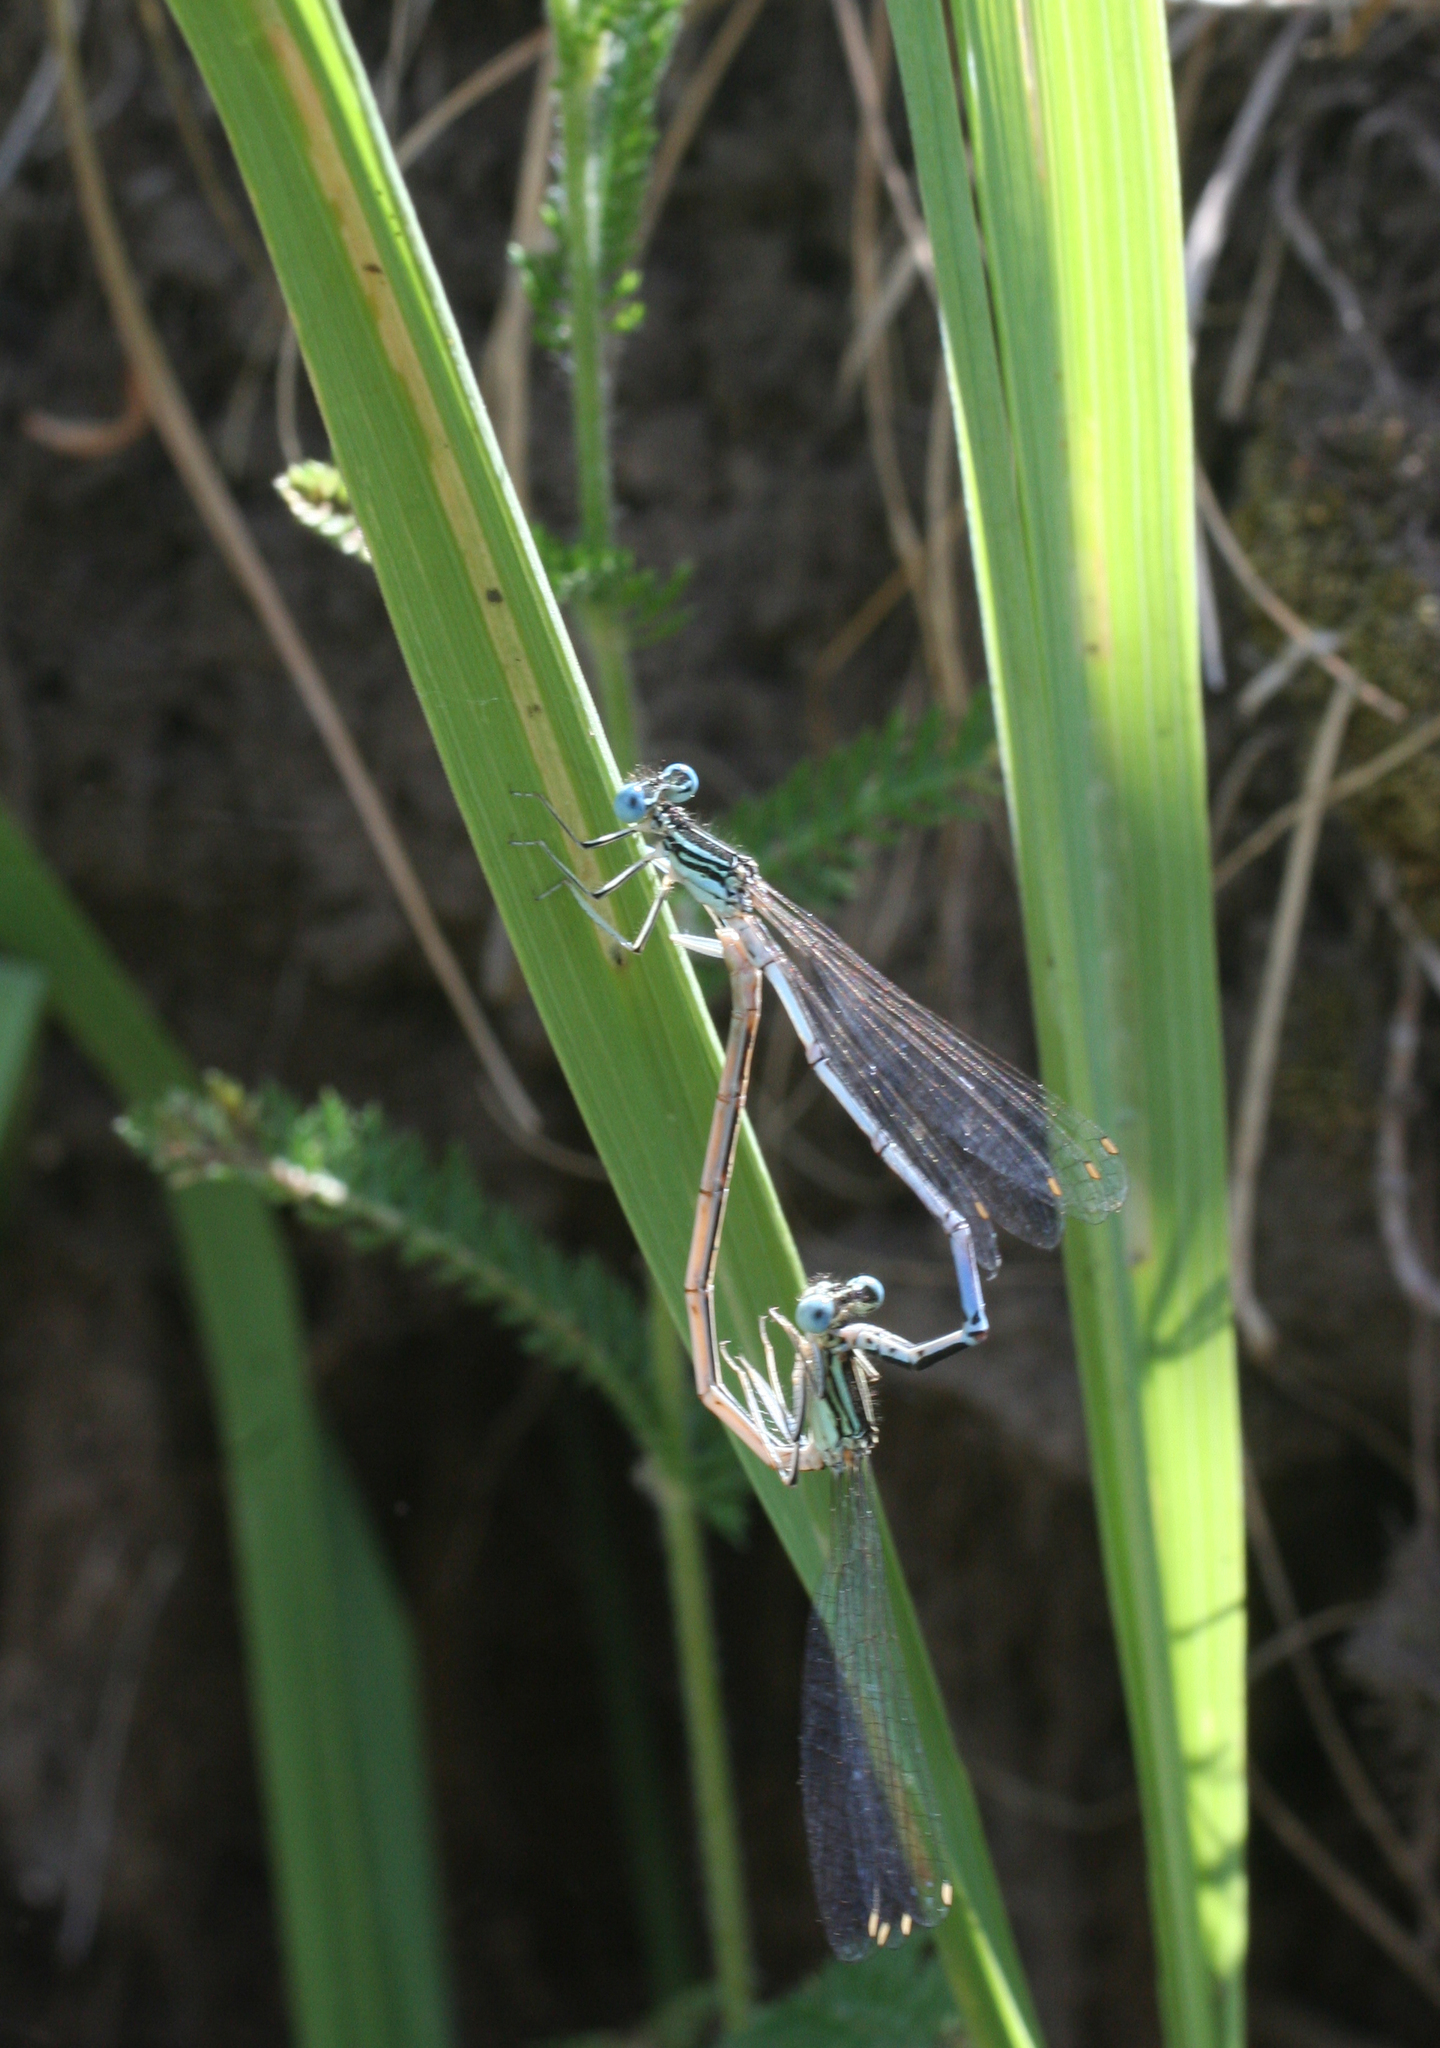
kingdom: Animalia
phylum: Arthropoda
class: Insecta
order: Odonata
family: Platycnemididae
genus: Platycnemis
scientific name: Platycnemis pennipes
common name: White-legged damselfly
